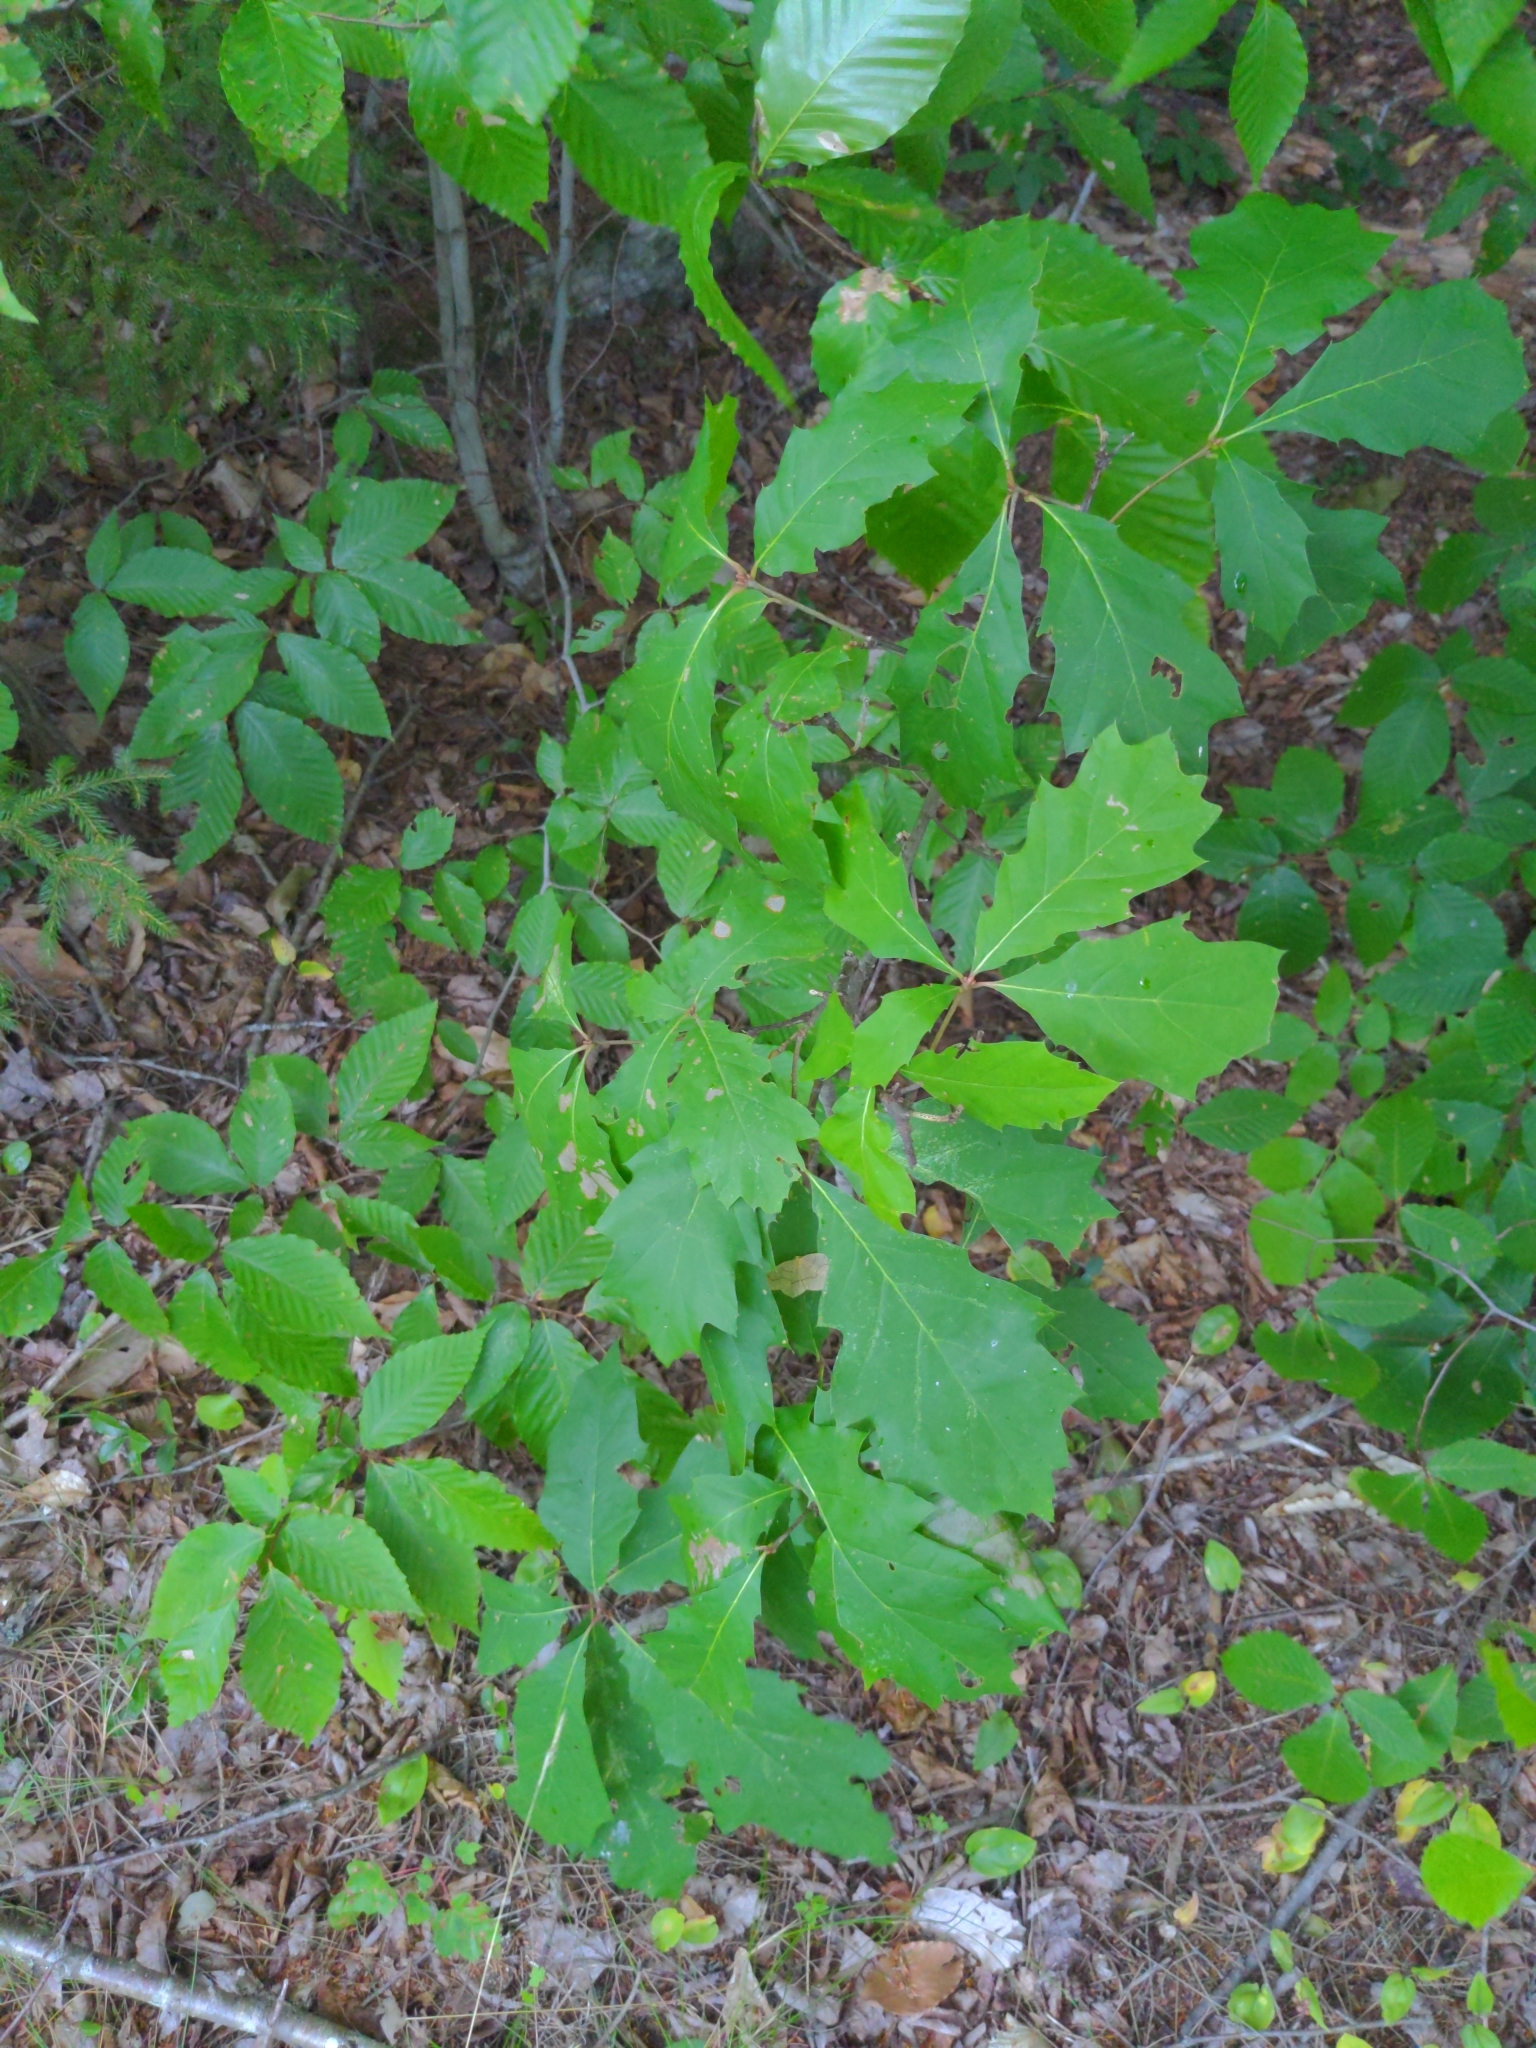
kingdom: Plantae
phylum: Tracheophyta
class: Magnoliopsida
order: Fagales
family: Fagaceae
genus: Quercus
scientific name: Quercus rubra
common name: Red oak
